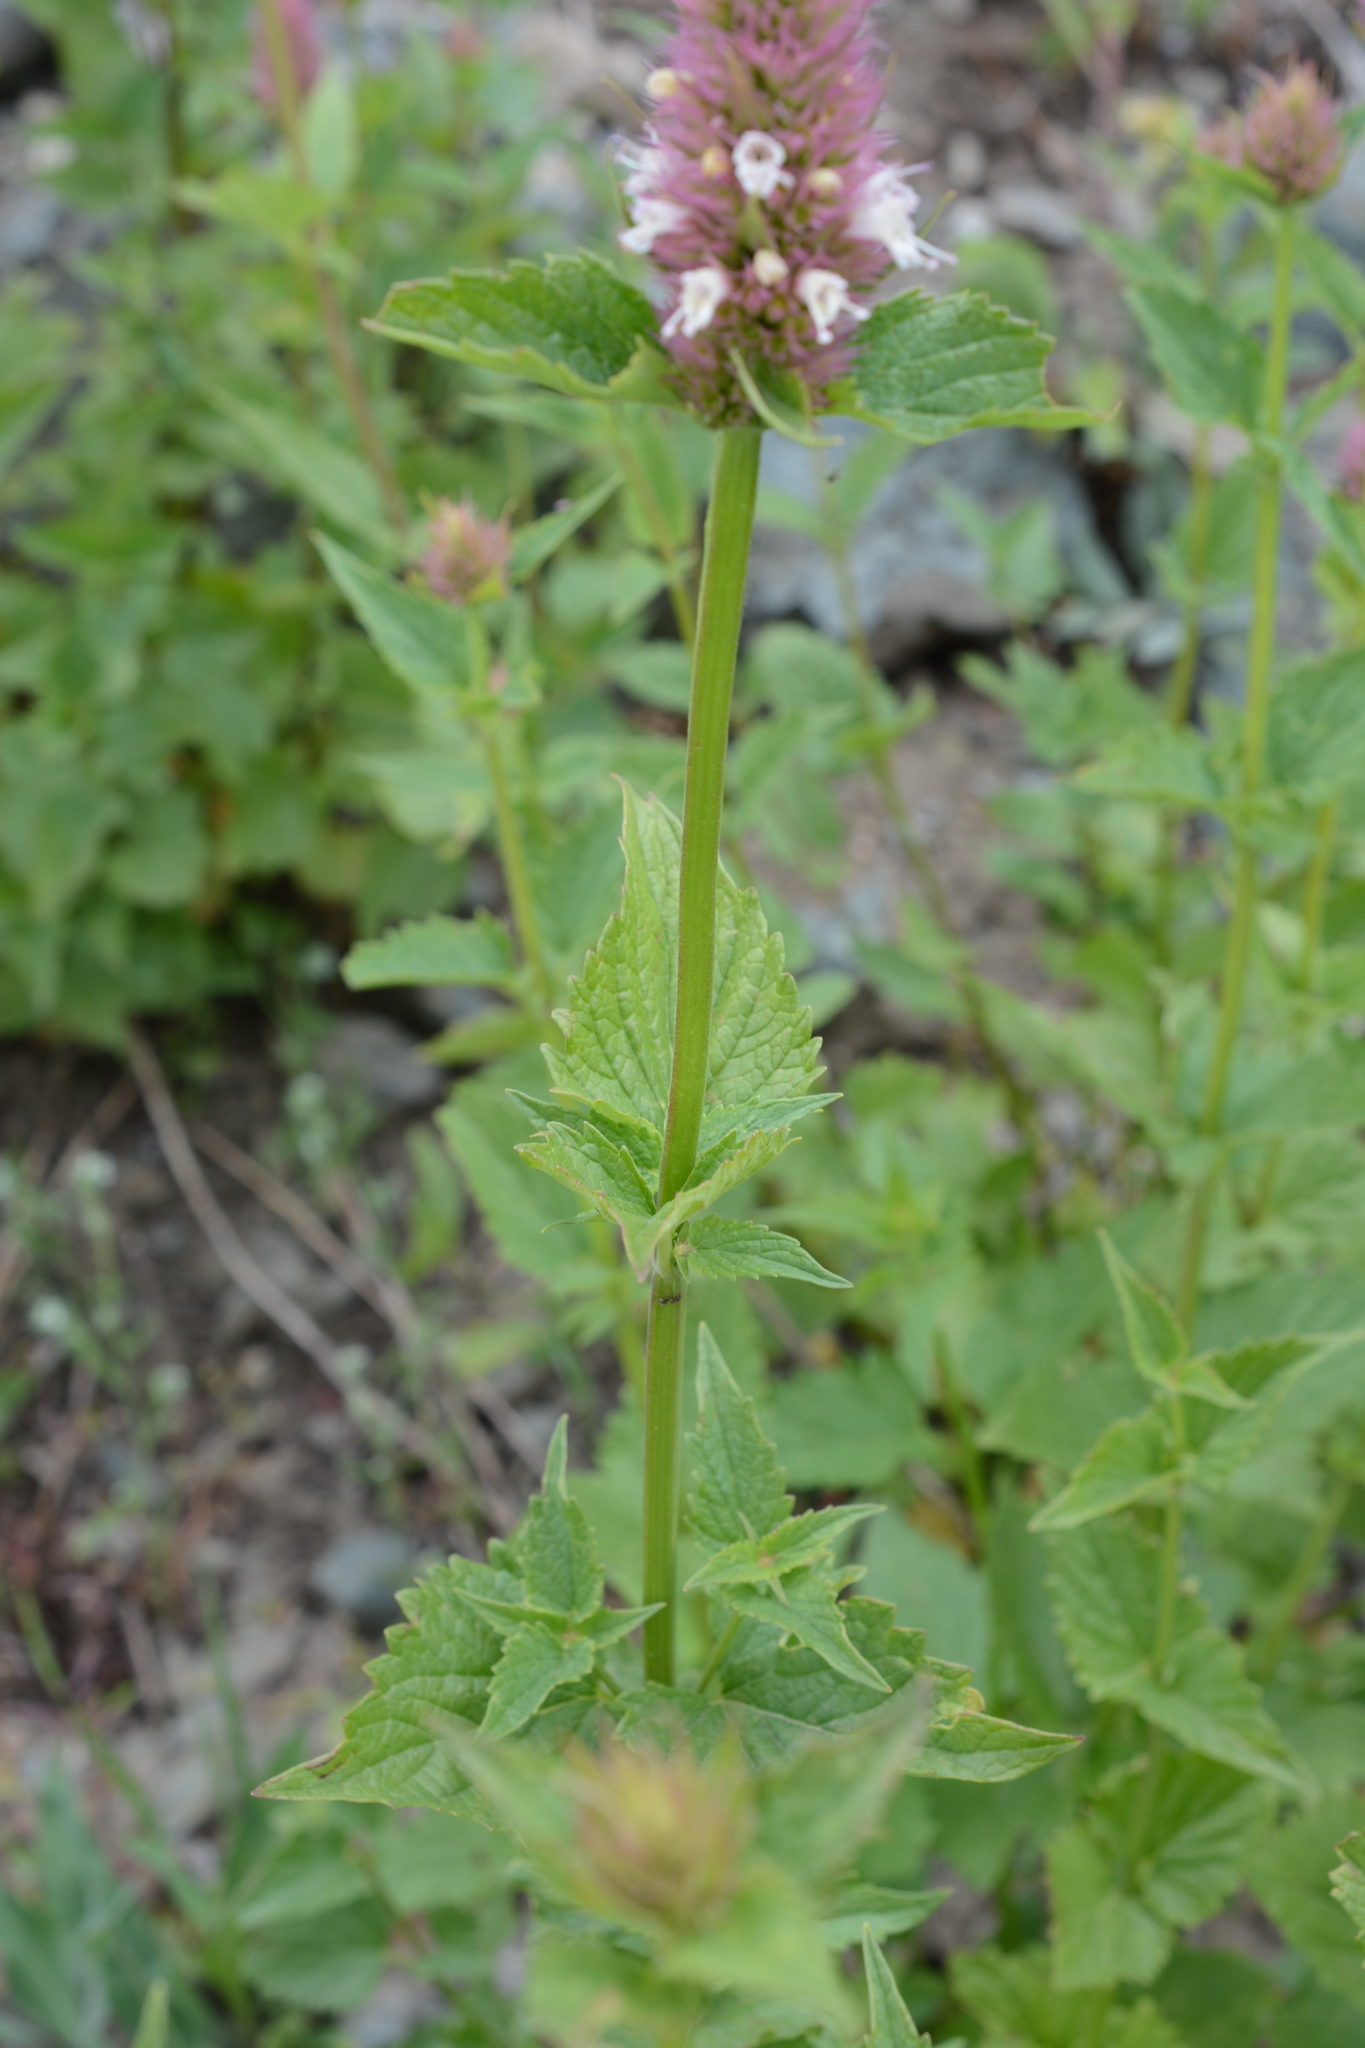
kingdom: Plantae
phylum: Tracheophyta
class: Magnoliopsida
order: Lamiales
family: Lamiaceae
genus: Agastache
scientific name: Agastache urticifolia
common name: Horsemint giant hyssop
